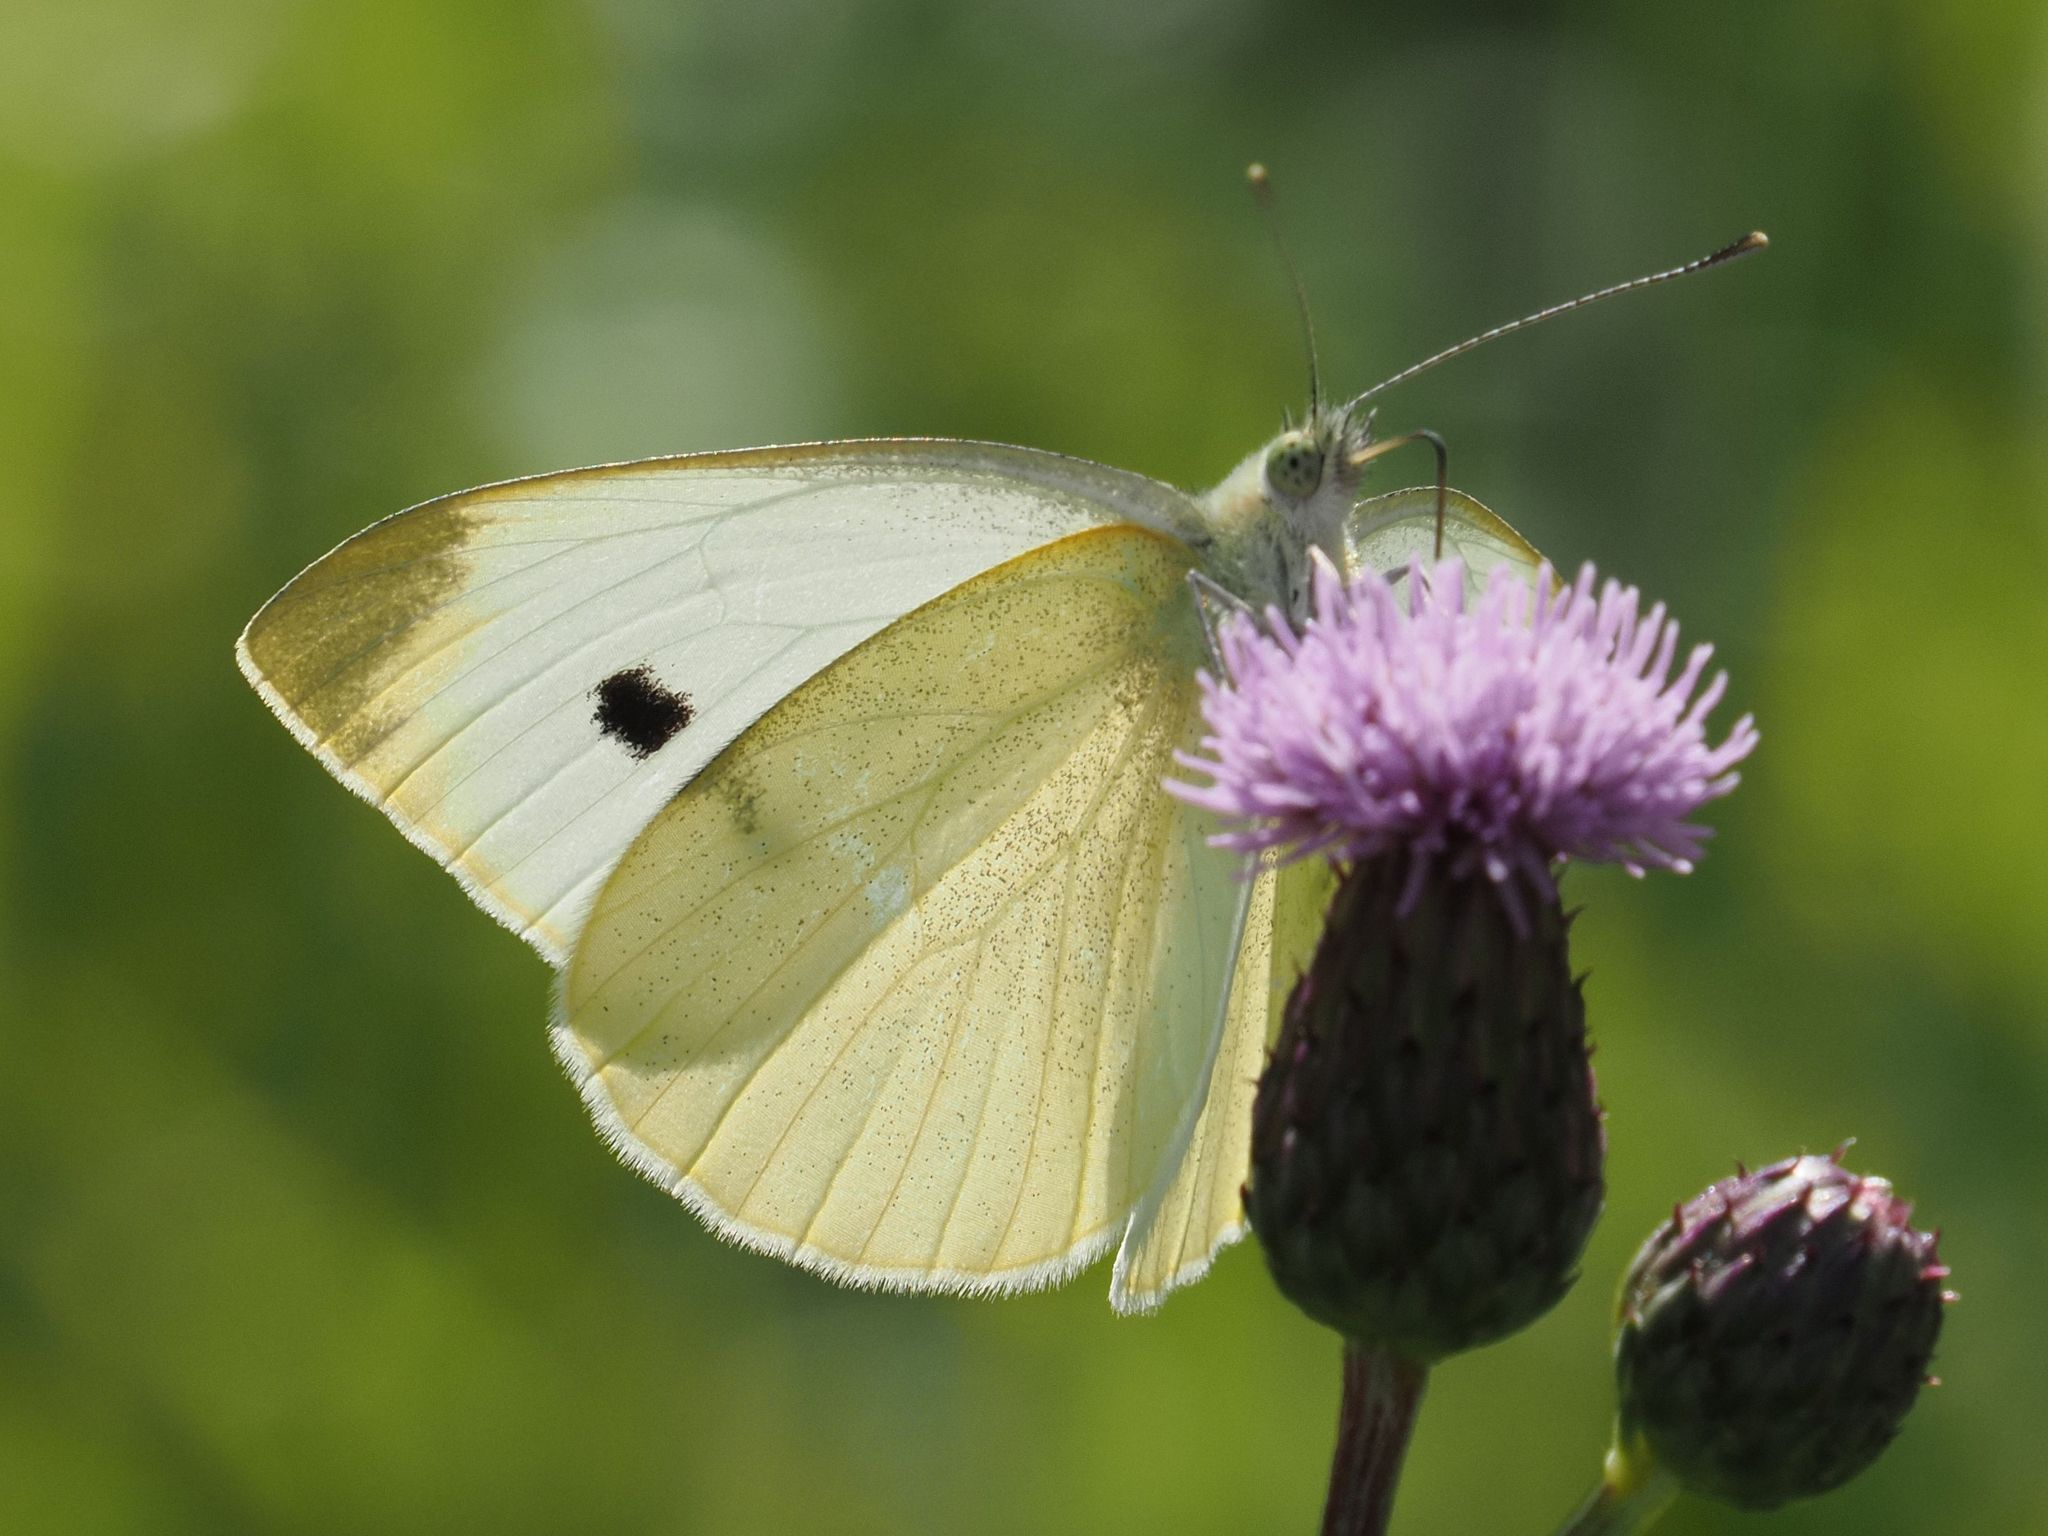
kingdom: Animalia
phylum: Arthropoda
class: Insecta
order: Lepidoptera
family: Pieridae
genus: Pieris
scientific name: Pieris rapae
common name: Small white
